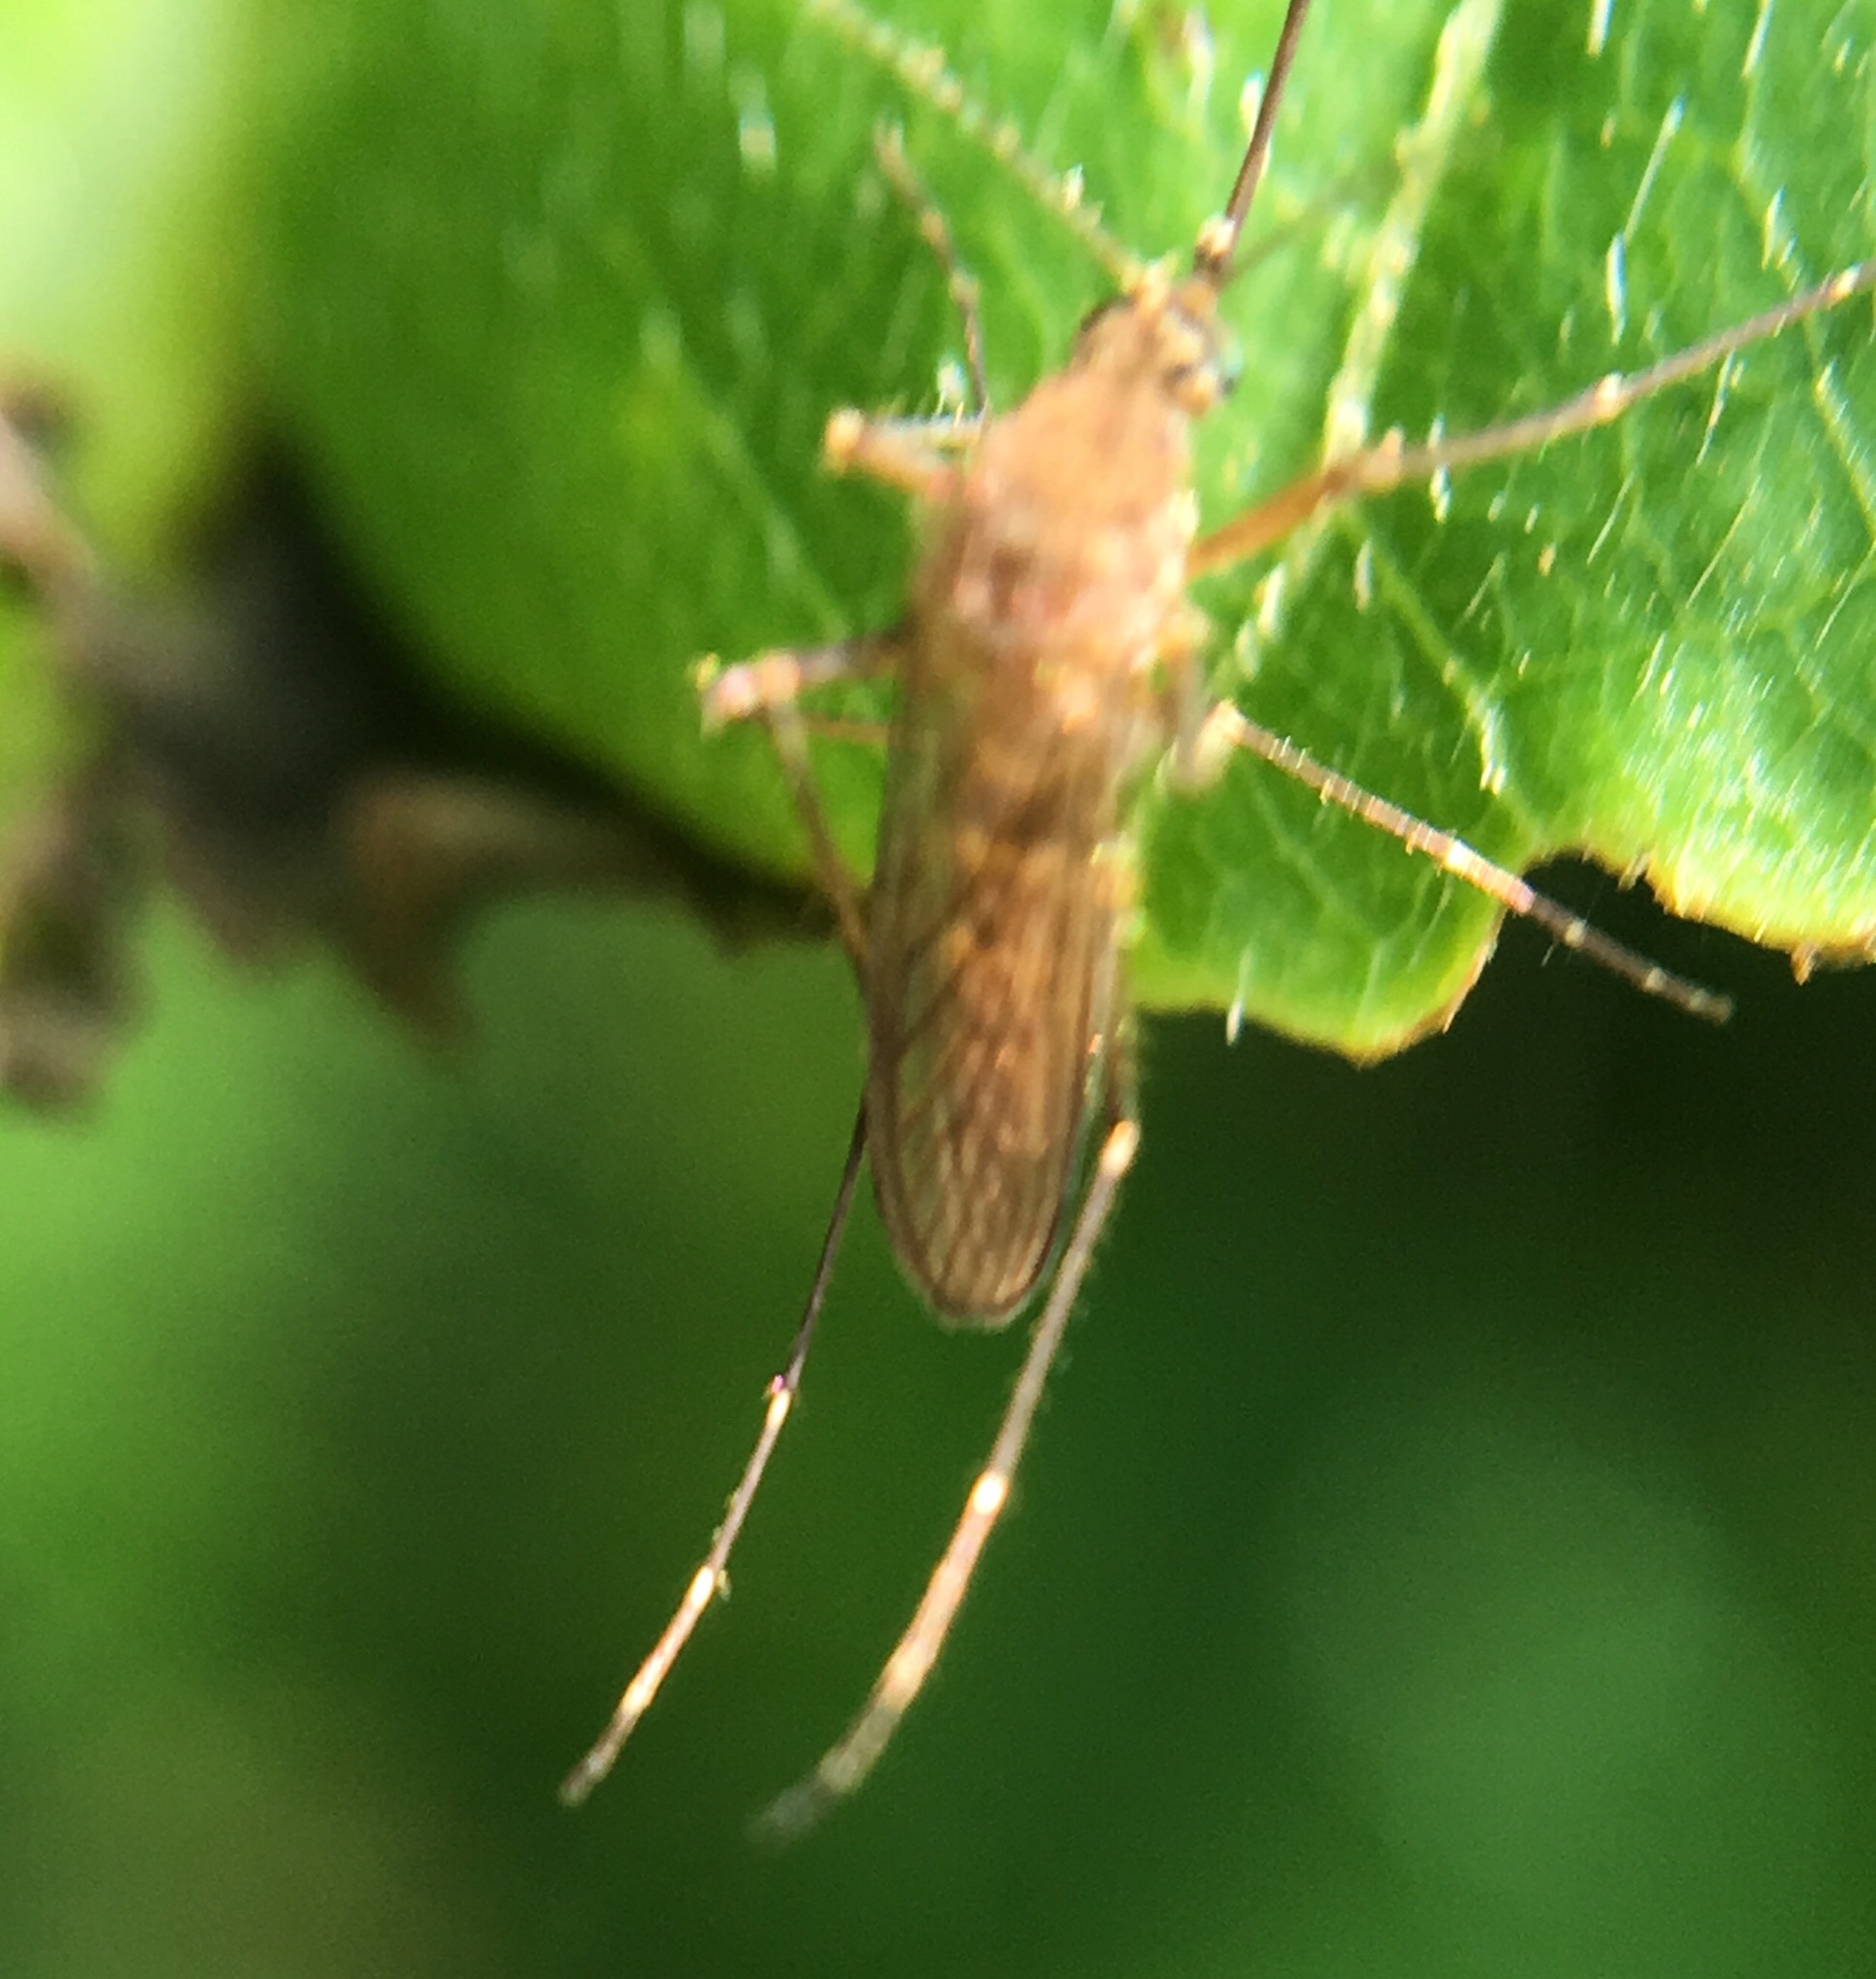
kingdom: Animalia
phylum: Arthropoda
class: Insecta
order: Diptera
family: Culicidae
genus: Aedes
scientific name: Aedes vexans
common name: Inland floodwater mosquito
